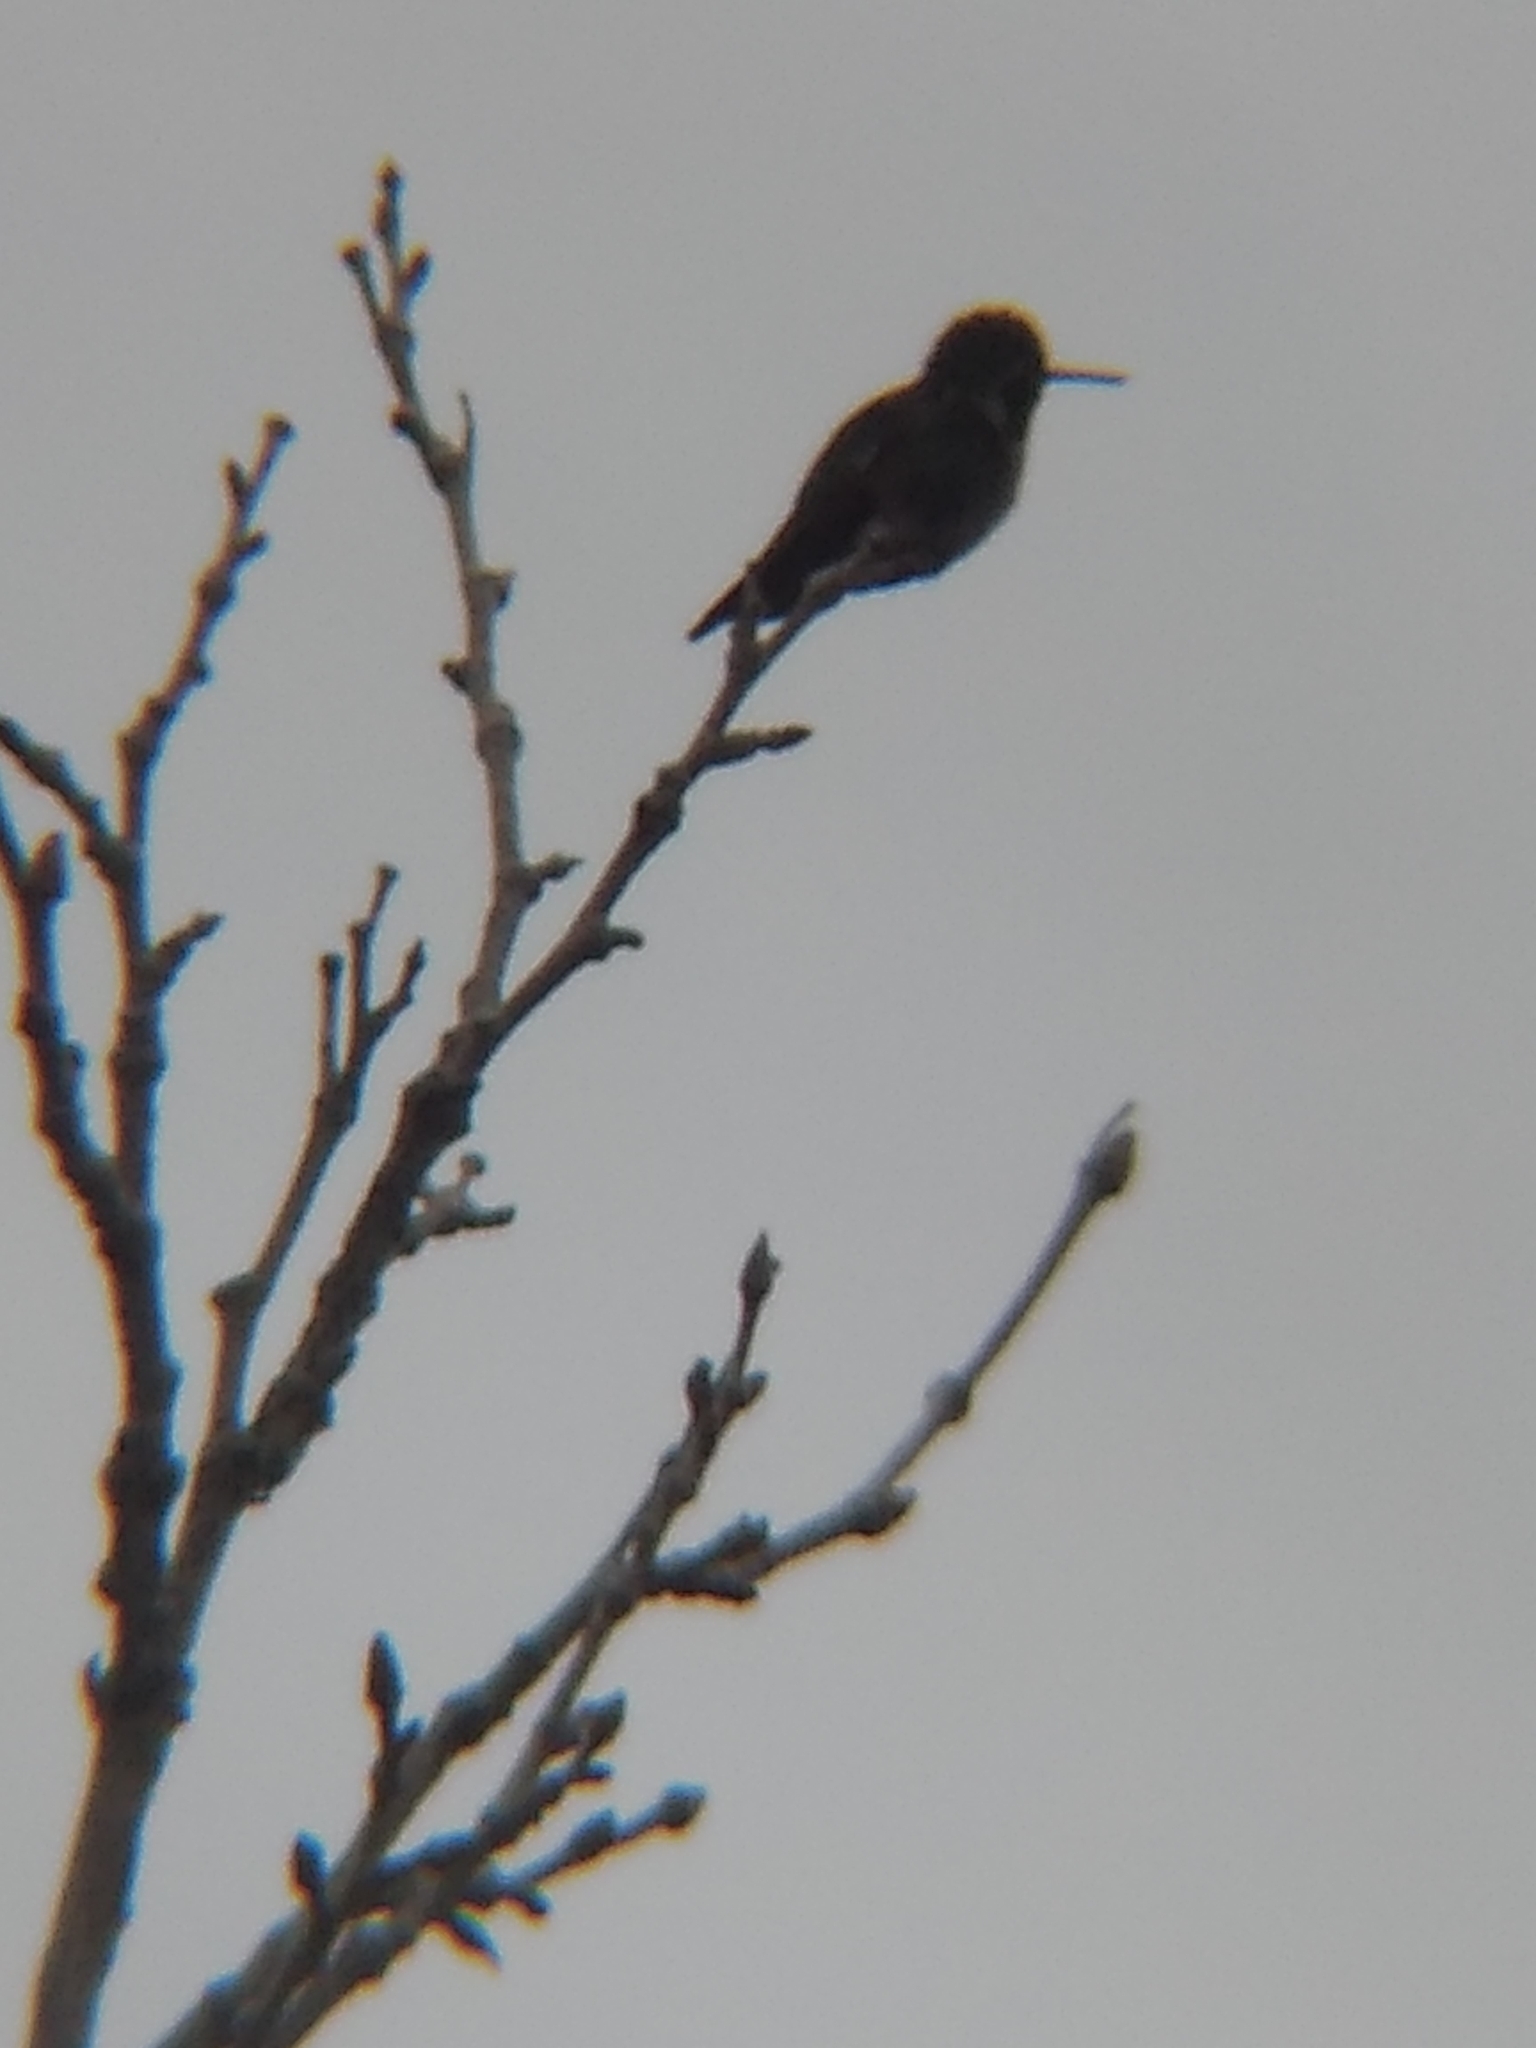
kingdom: Animalia
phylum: Chordata
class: Aves
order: Apodiformes
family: Trochilidae
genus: Calypte
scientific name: Calypte anna
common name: Anna's hummingbird
